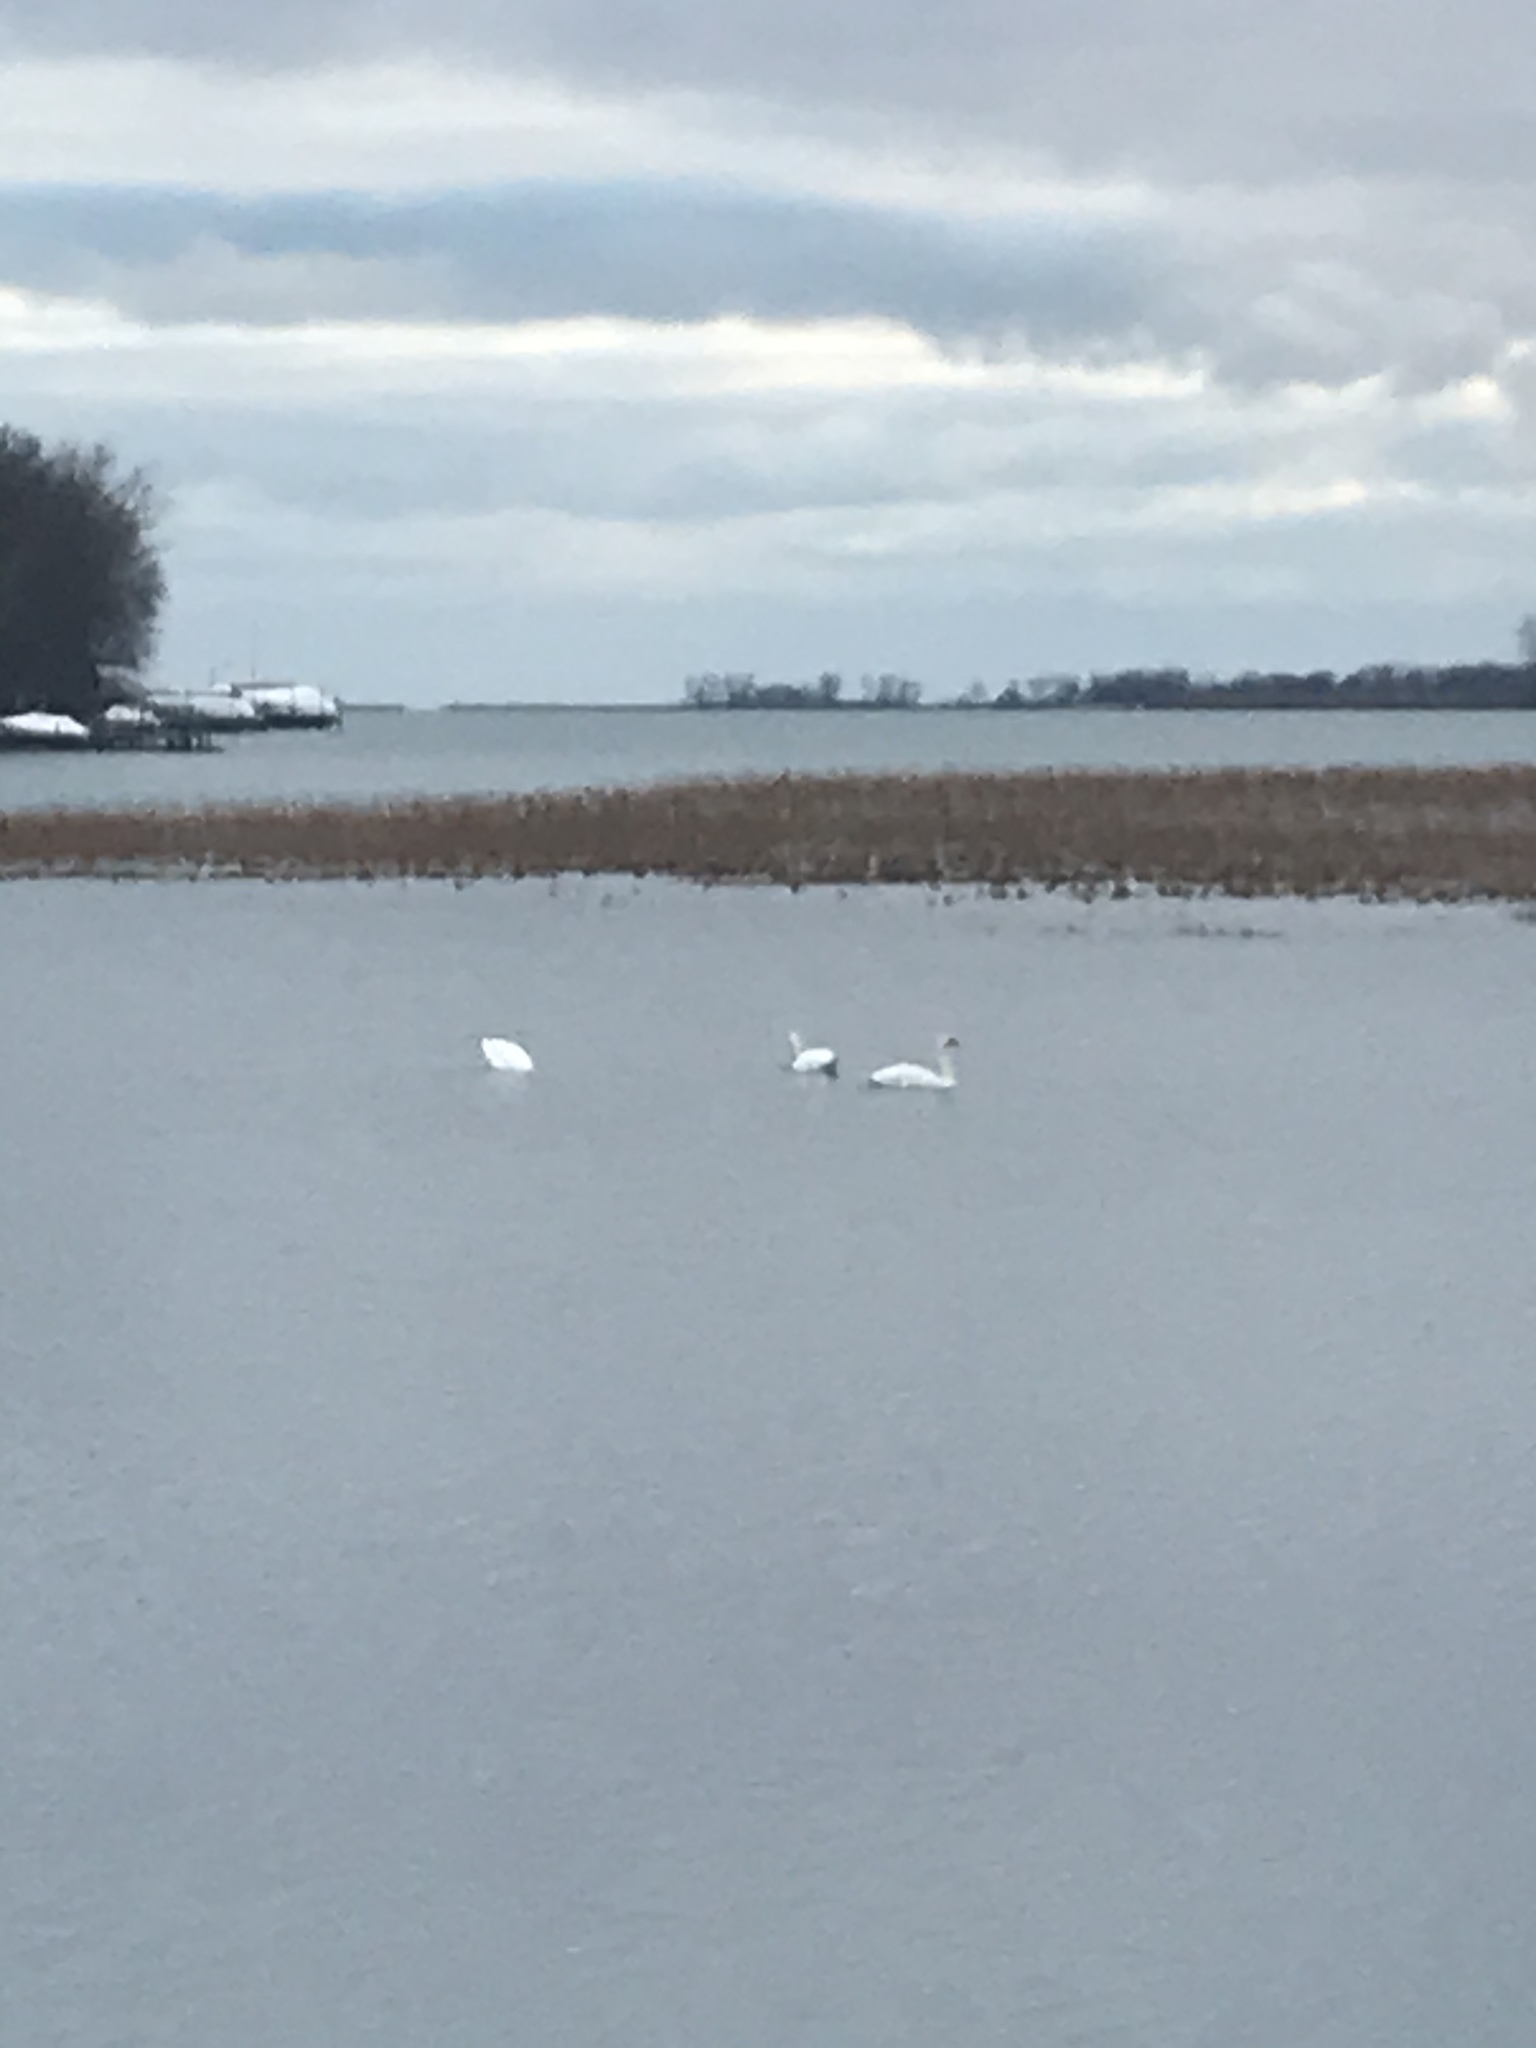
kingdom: Animalia
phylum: Chordata
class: Aves
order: Anseriformes
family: Anatidae
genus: Cygnus
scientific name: Cygnus olor
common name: Mute swan
